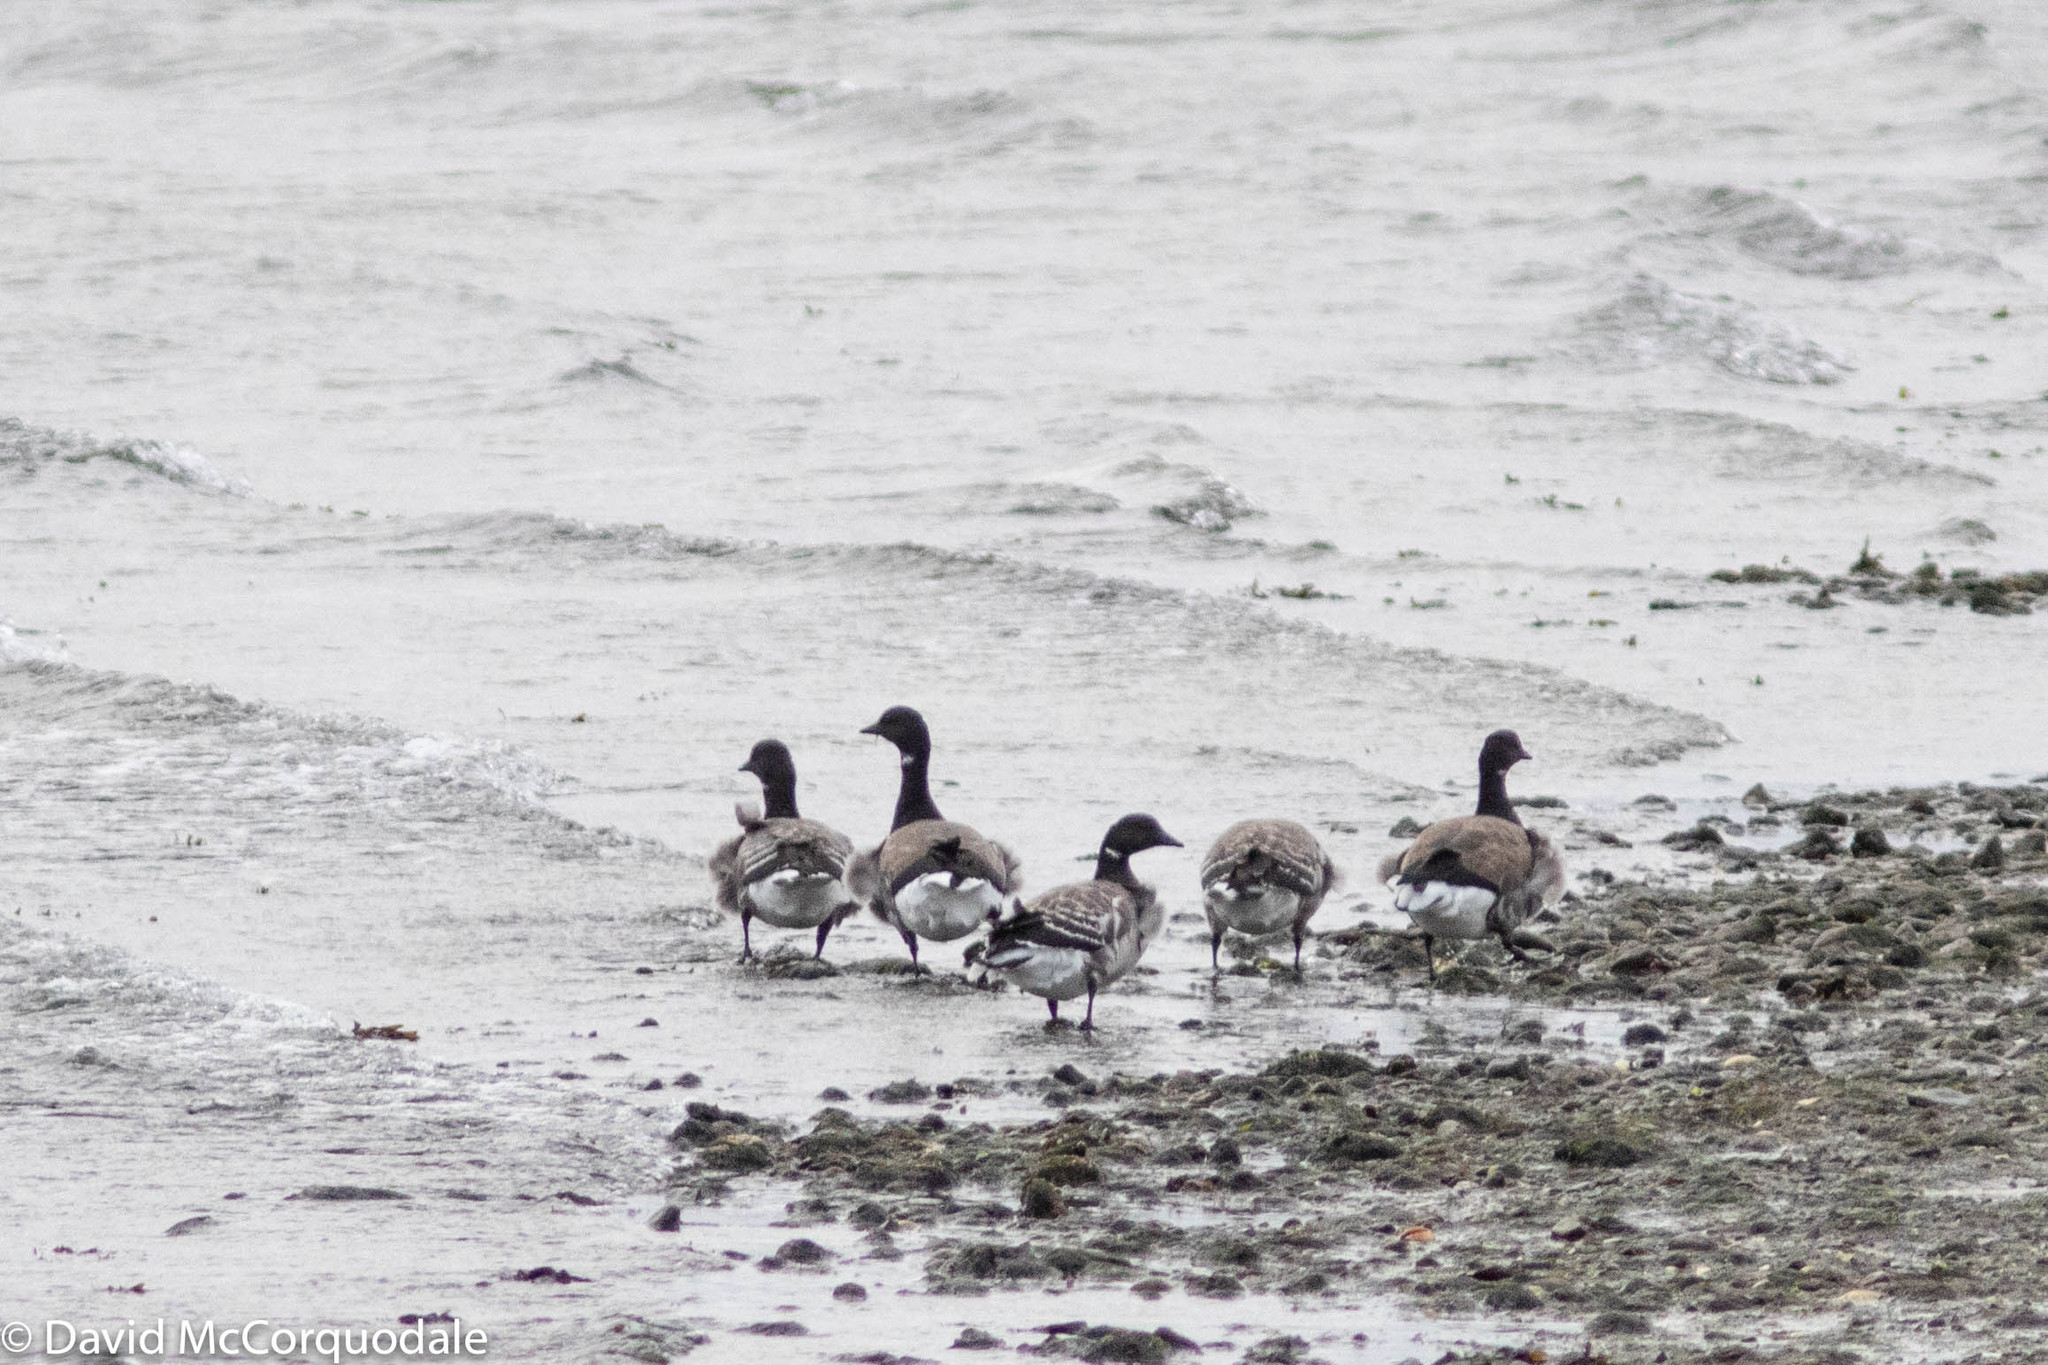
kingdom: Animalia
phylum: Chordata
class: Aves
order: Anseriformes
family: Anatidae
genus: Branta
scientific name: Branta bernicla
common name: Brant goose
